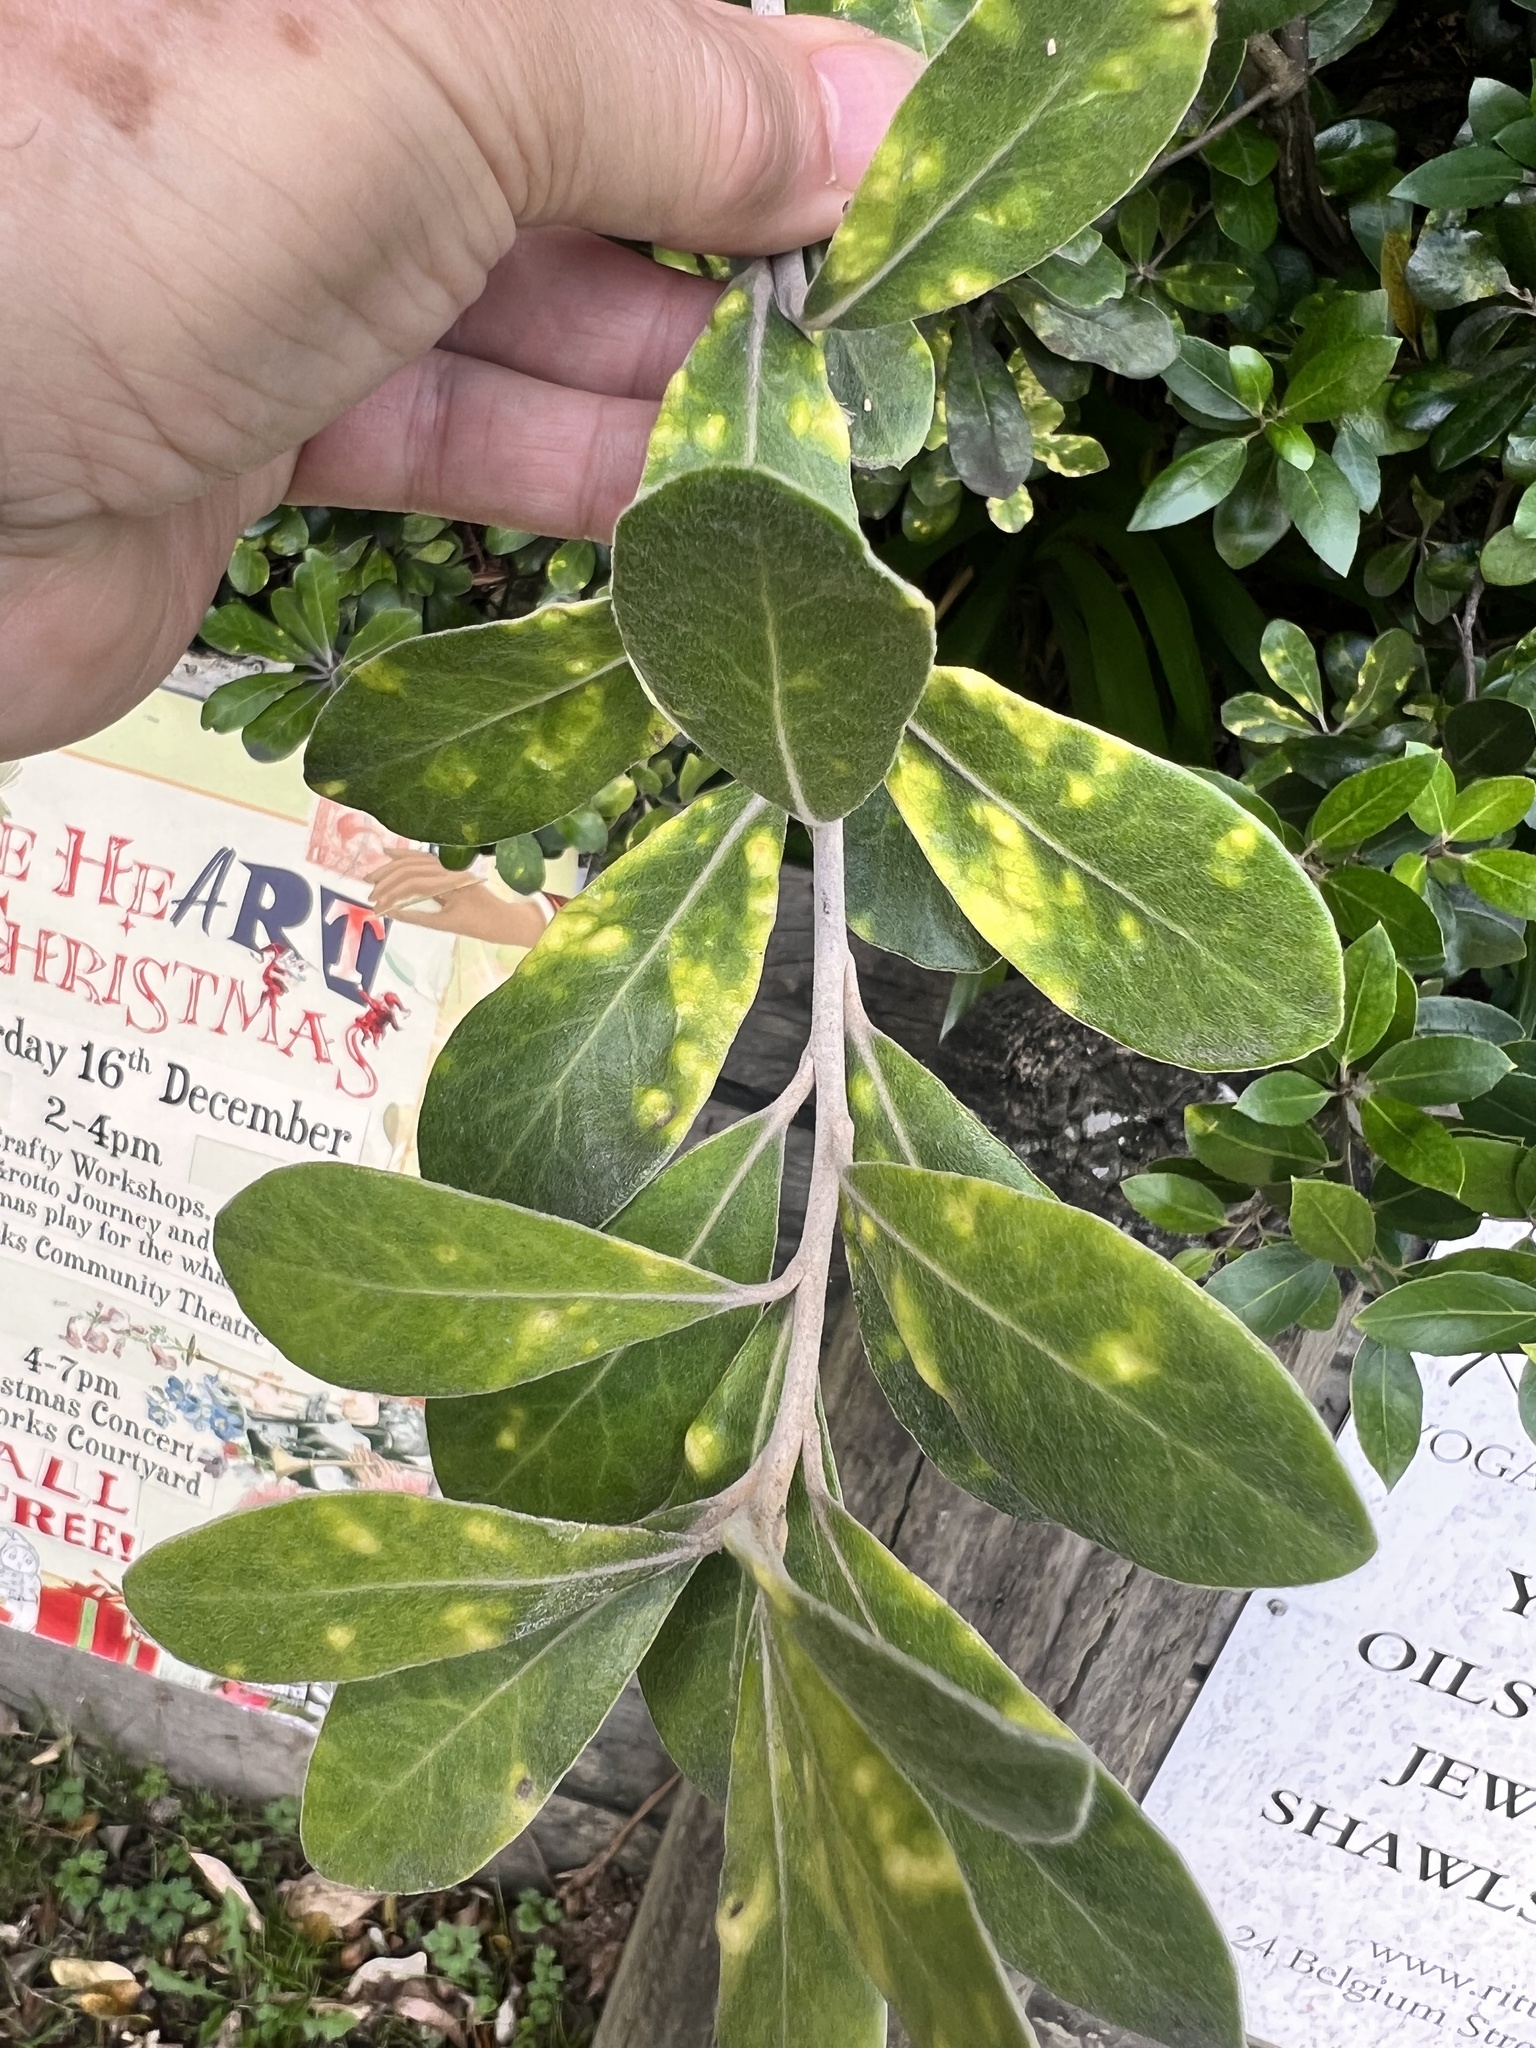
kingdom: Plantae
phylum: Tracheophyta
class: Magnoliopsida
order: Apiales
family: Pittosporaceae
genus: Pittosporum
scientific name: Pittosporum crassifolium
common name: Karo
